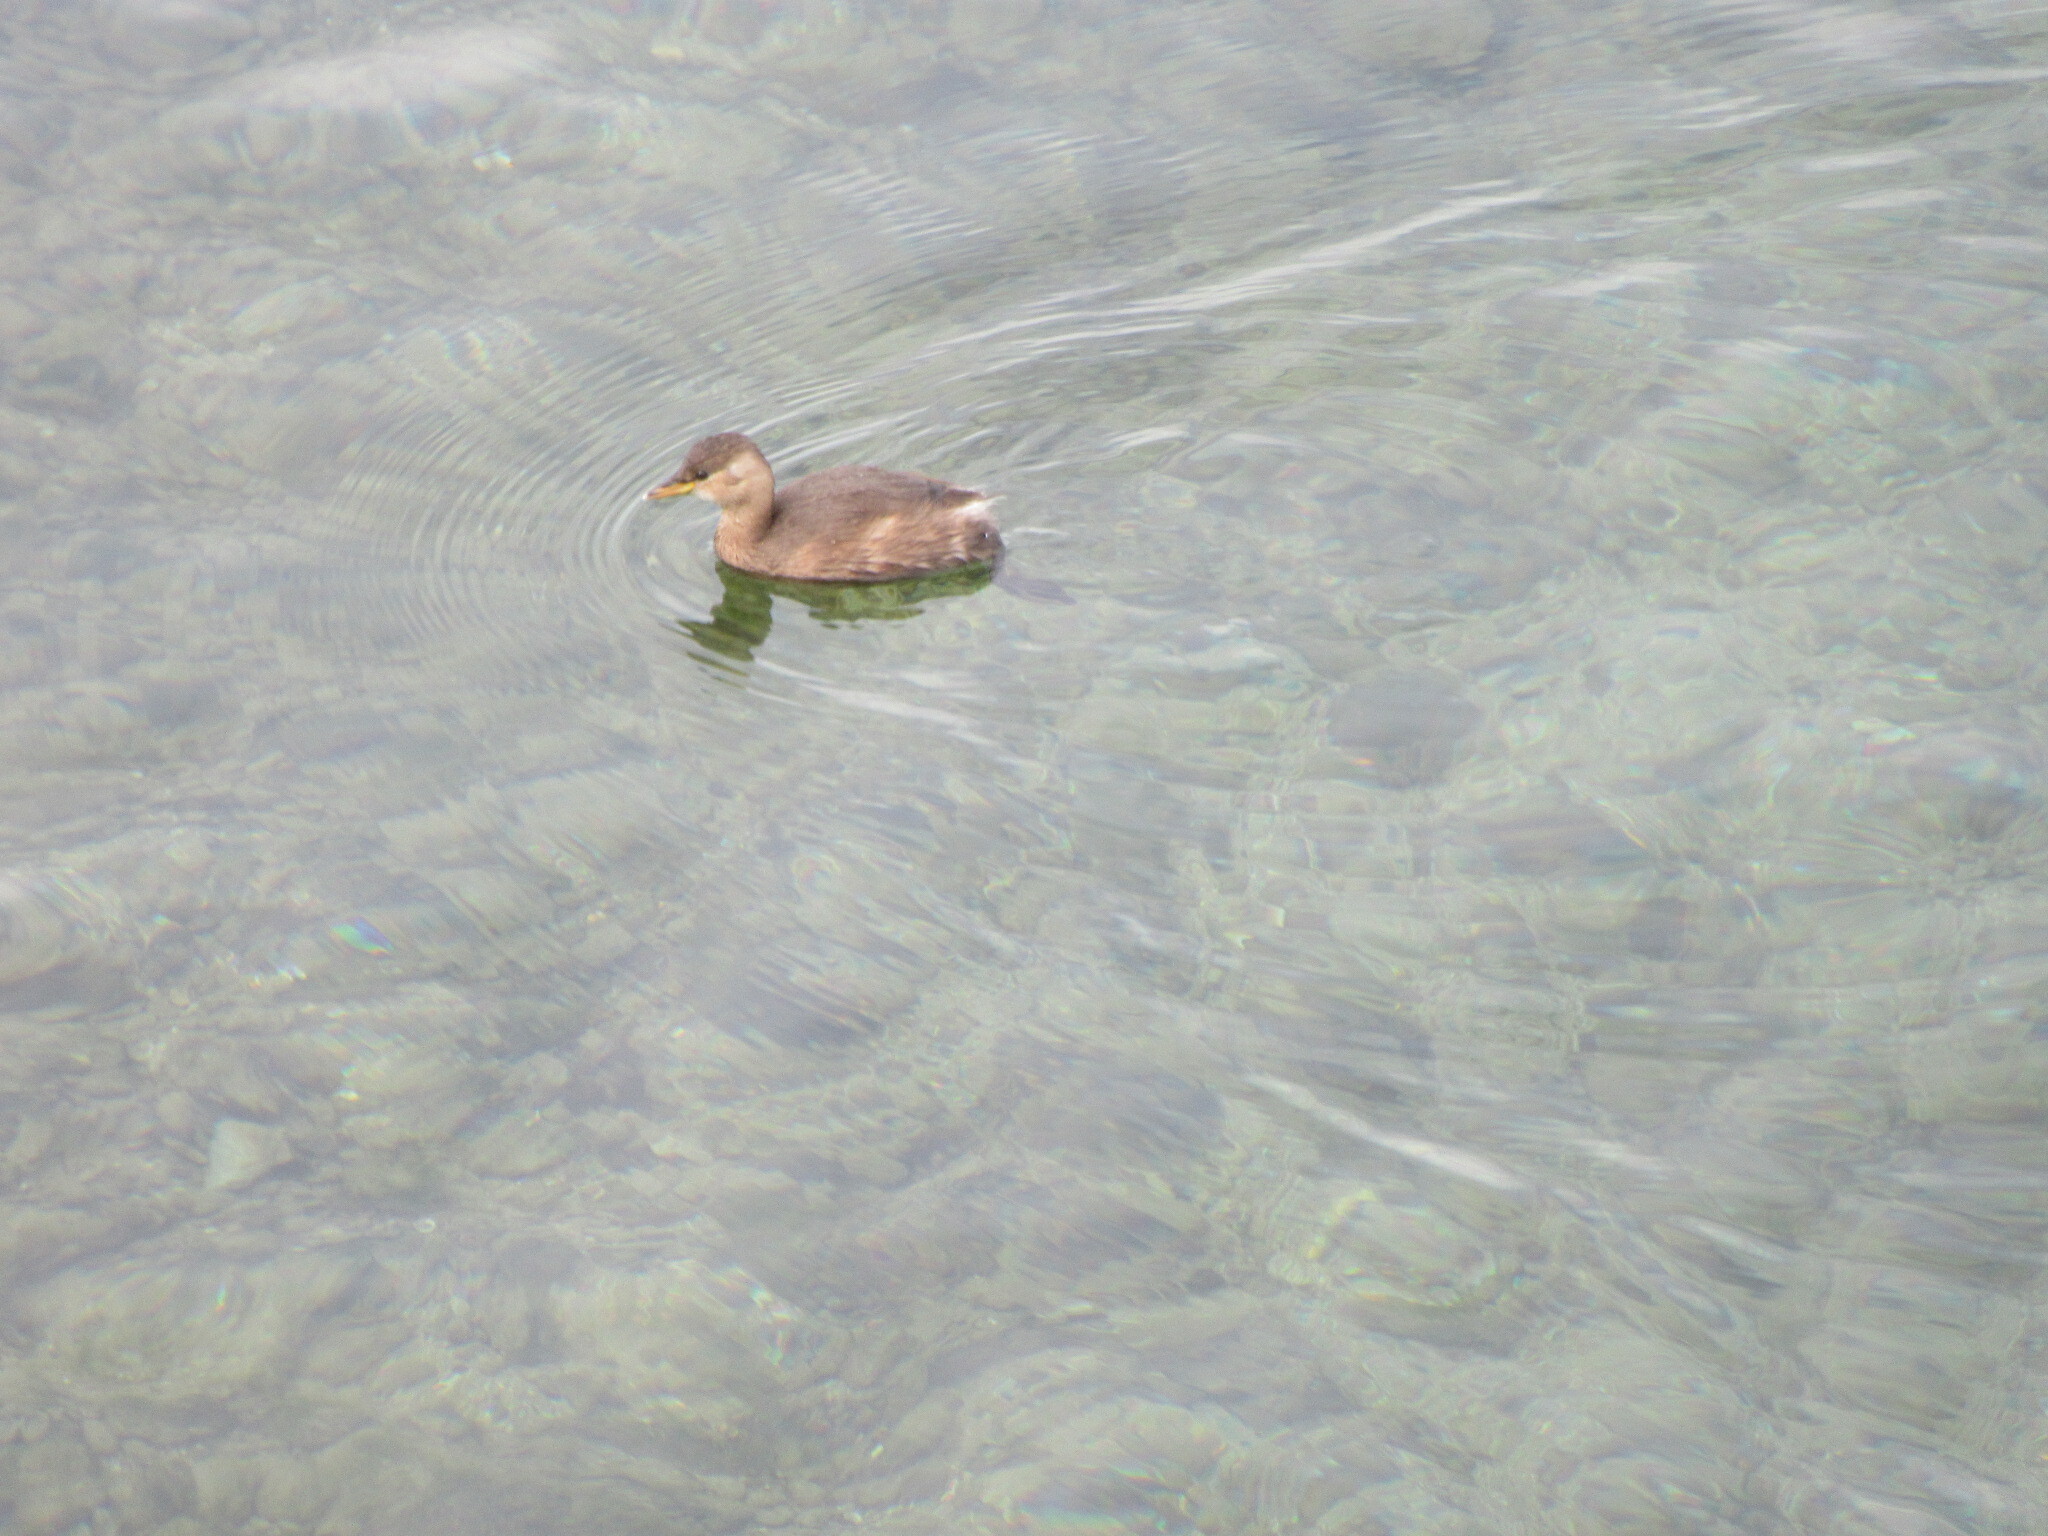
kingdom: Animalia
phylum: Chordata
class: Aves
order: Podicipediformes
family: Podicipedidae
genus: Tachybaptus
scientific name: Tachybaptus ruficollis
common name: Little grebe
